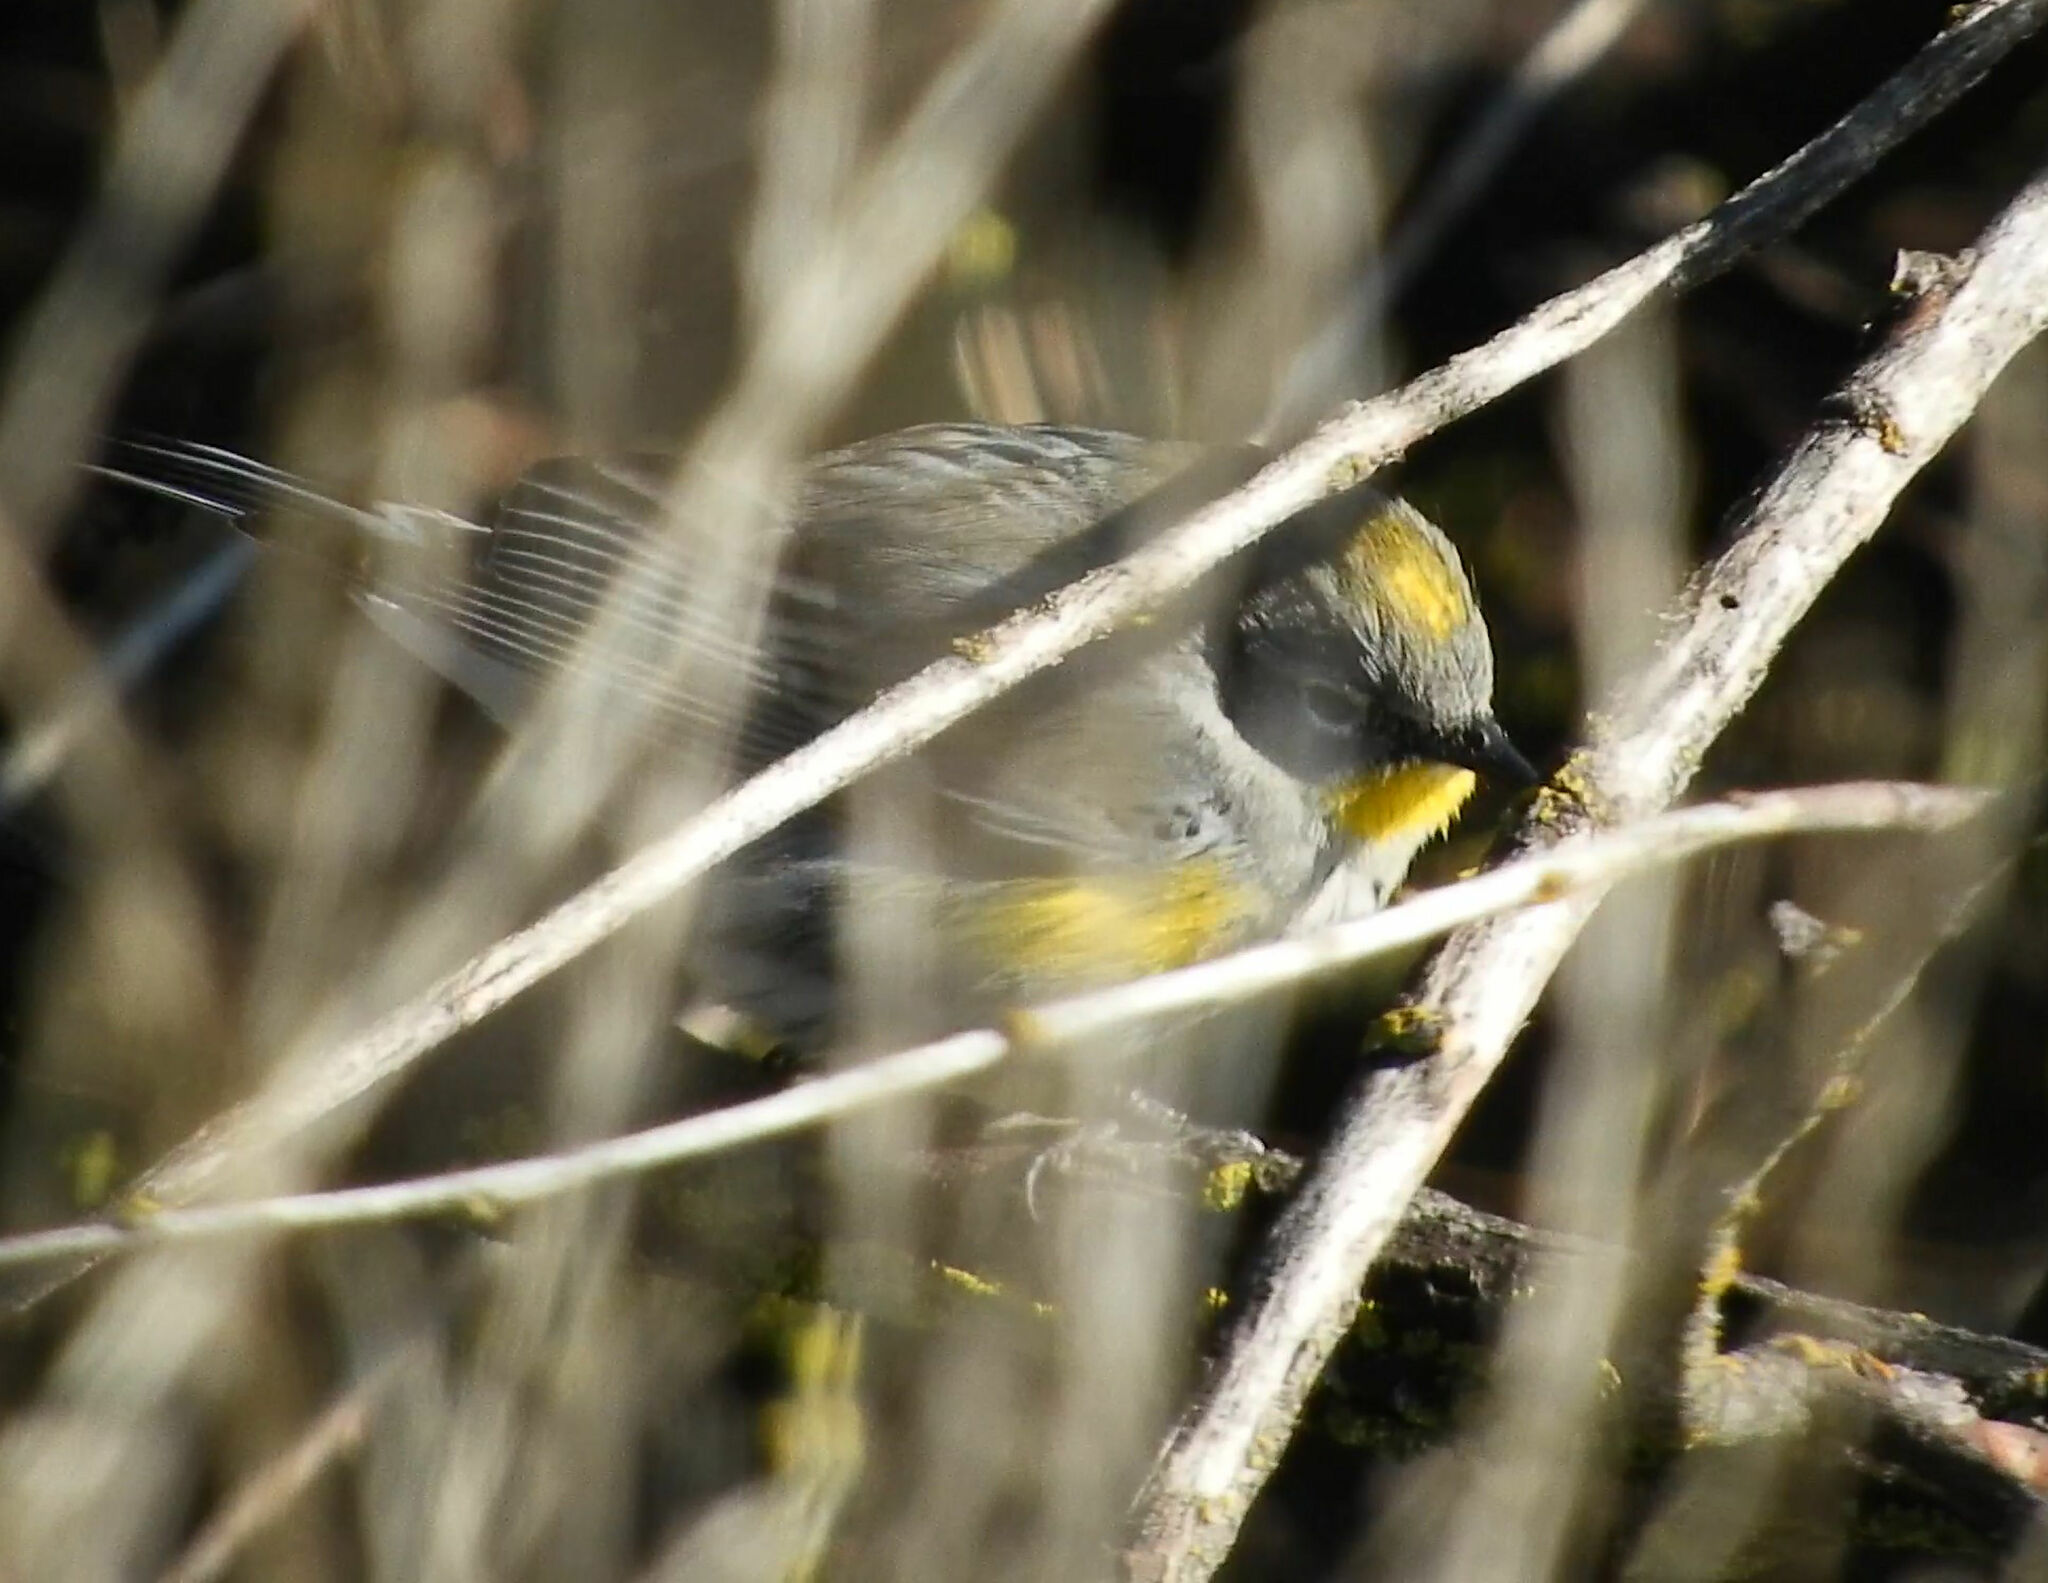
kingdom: Animalia
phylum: Chordata
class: Aves
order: Passeriformes
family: Parulidae
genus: Setophaga
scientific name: Setophaga auduboni
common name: Audubon's warbler
